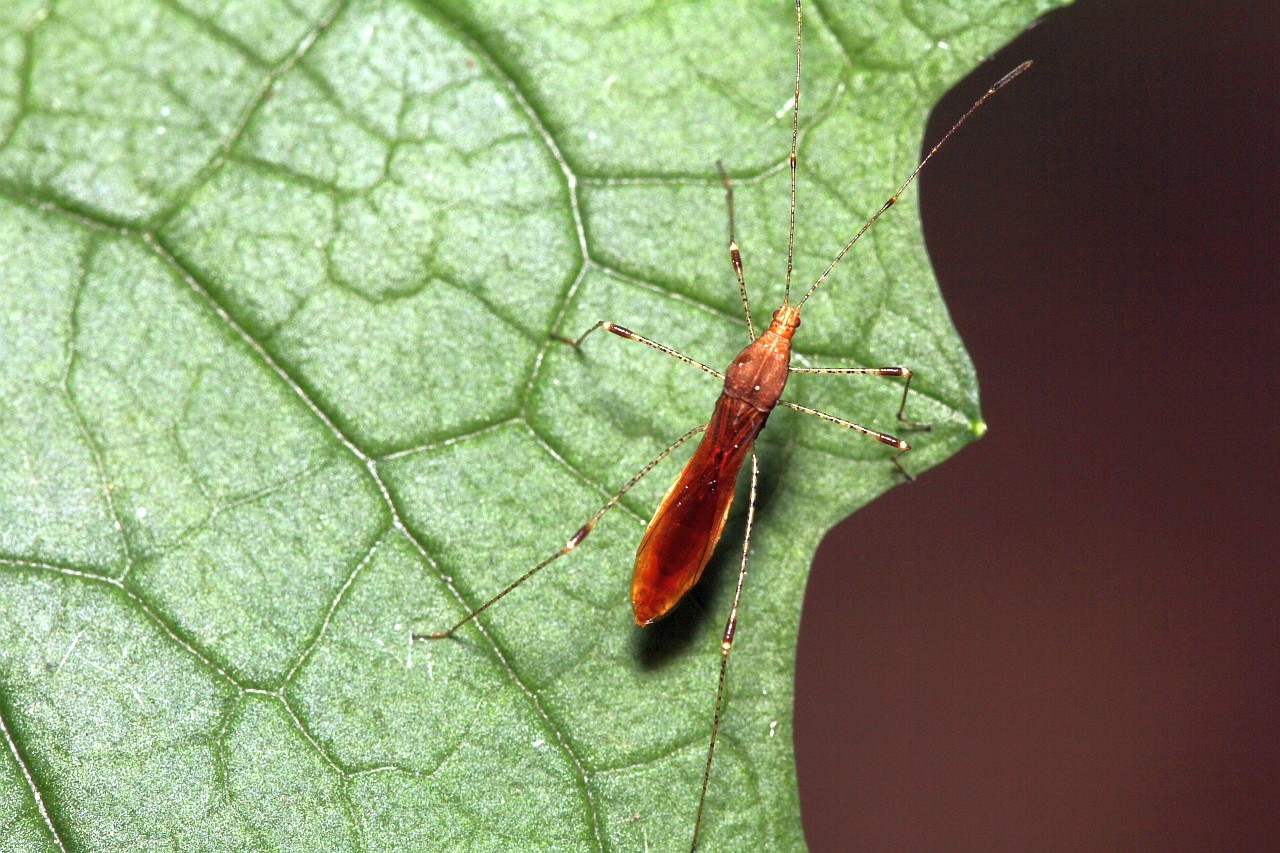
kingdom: Animalia
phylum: Arthropoda
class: Insecta
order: Hemiptera
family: Berytidae
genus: Metatropis
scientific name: Metatropis rufescens
